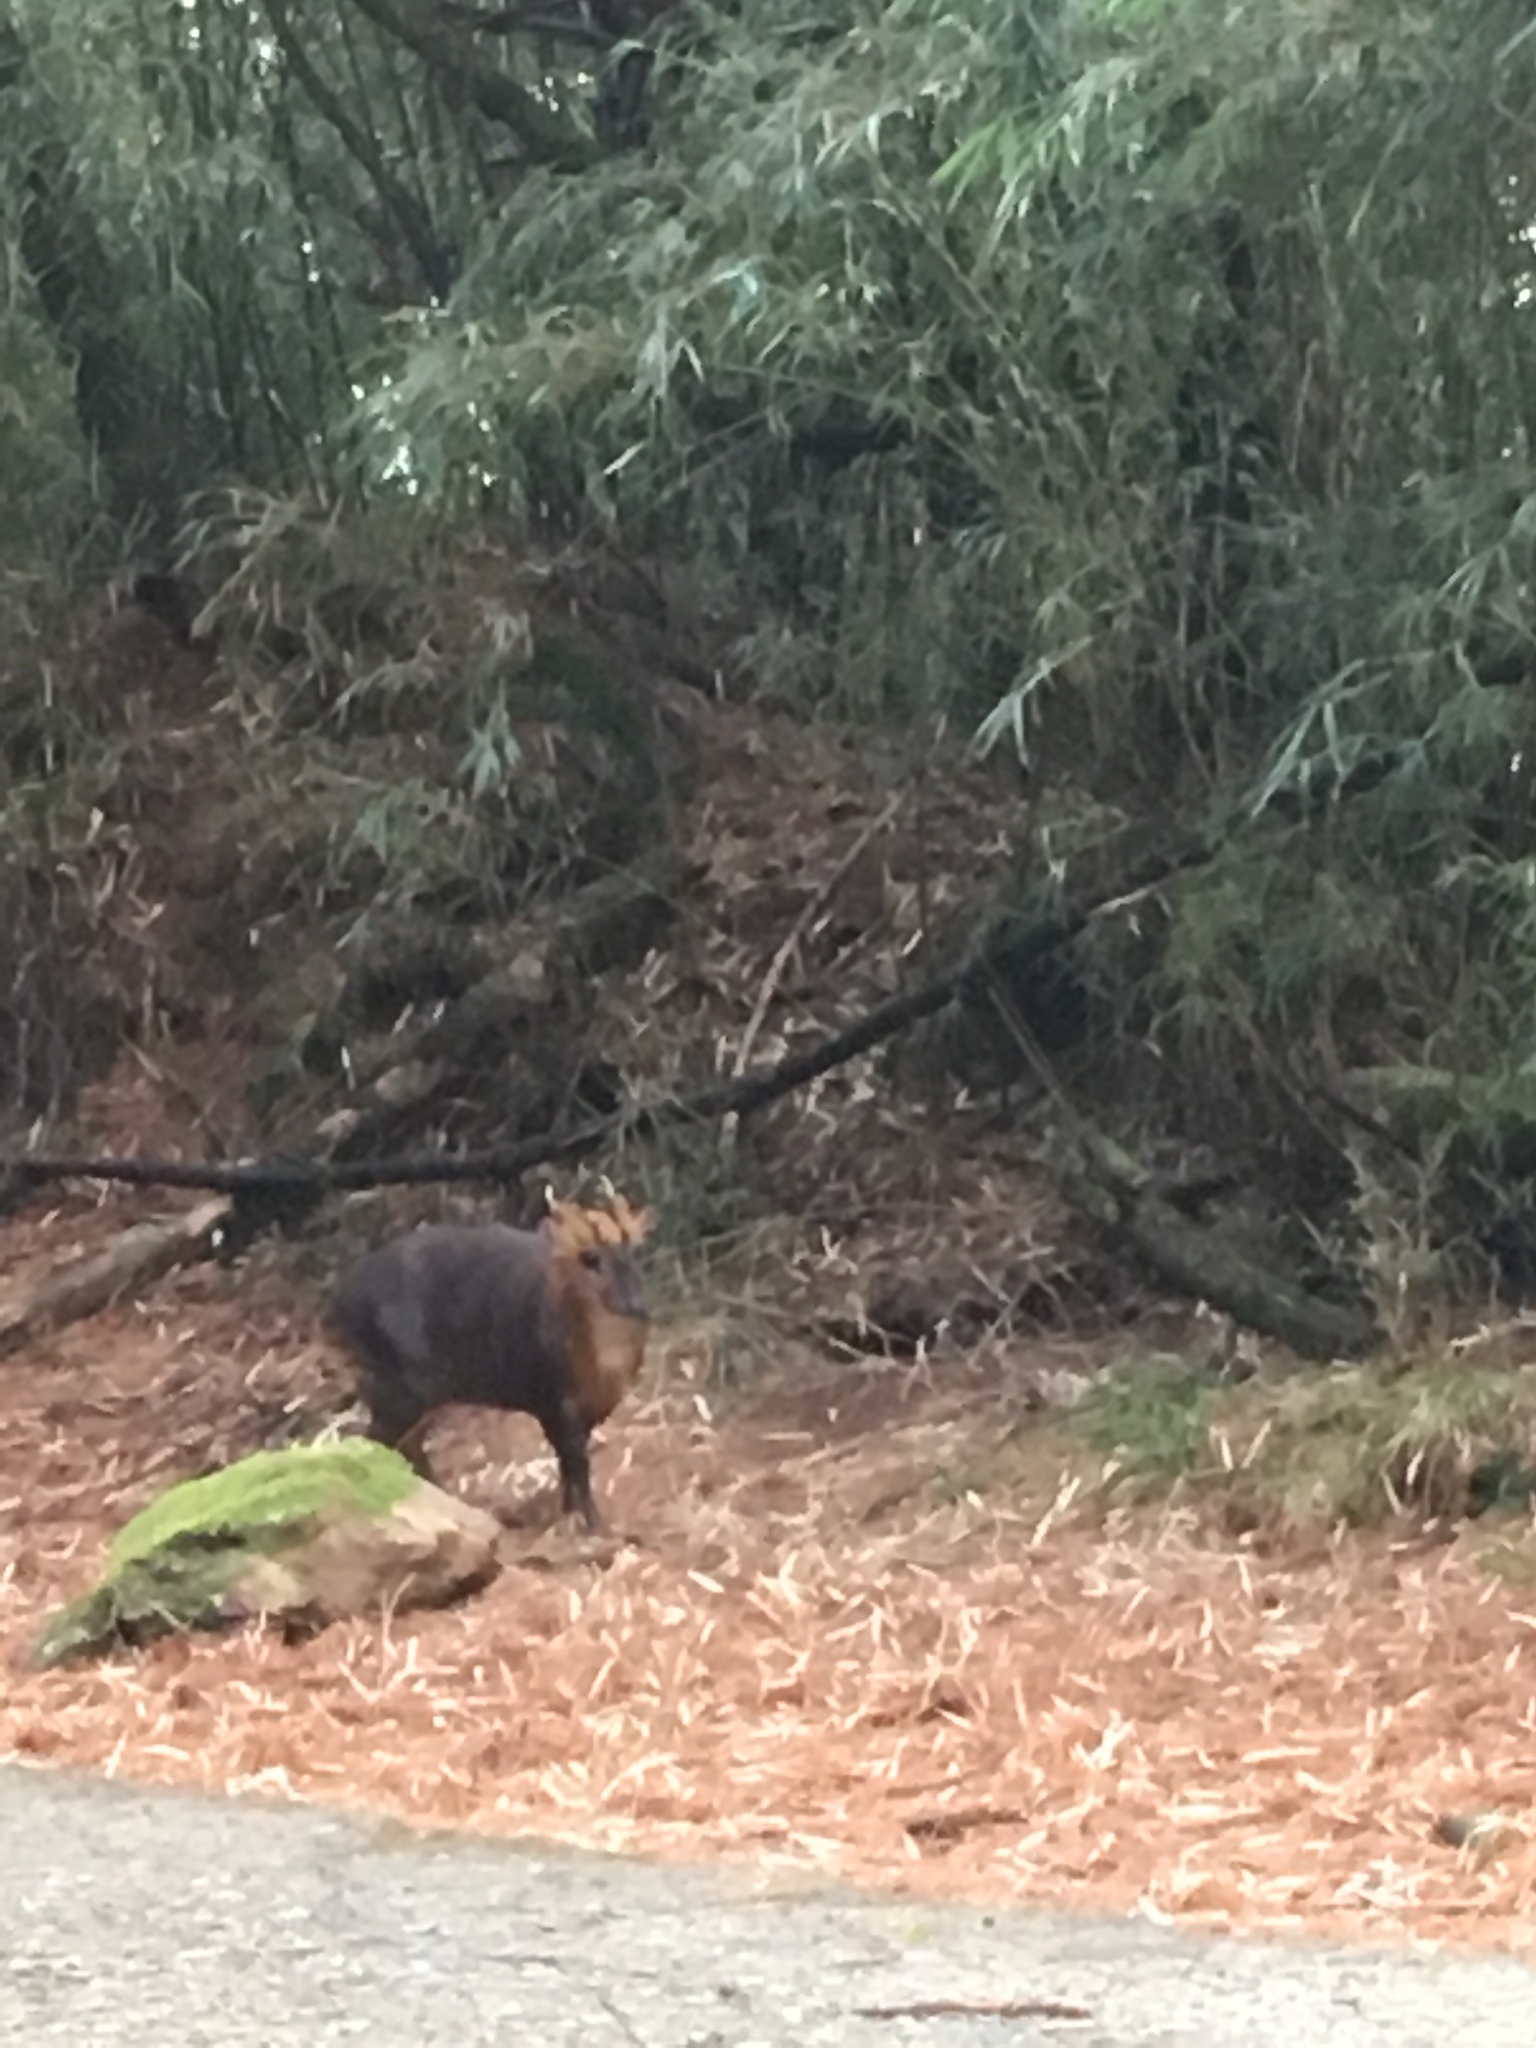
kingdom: Animalia
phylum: Chordata
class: Mammalia
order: Artiodactyla
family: Cervidae
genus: Muntiacus
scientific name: Muntiacus reevesi
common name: Reeves' muntjac
